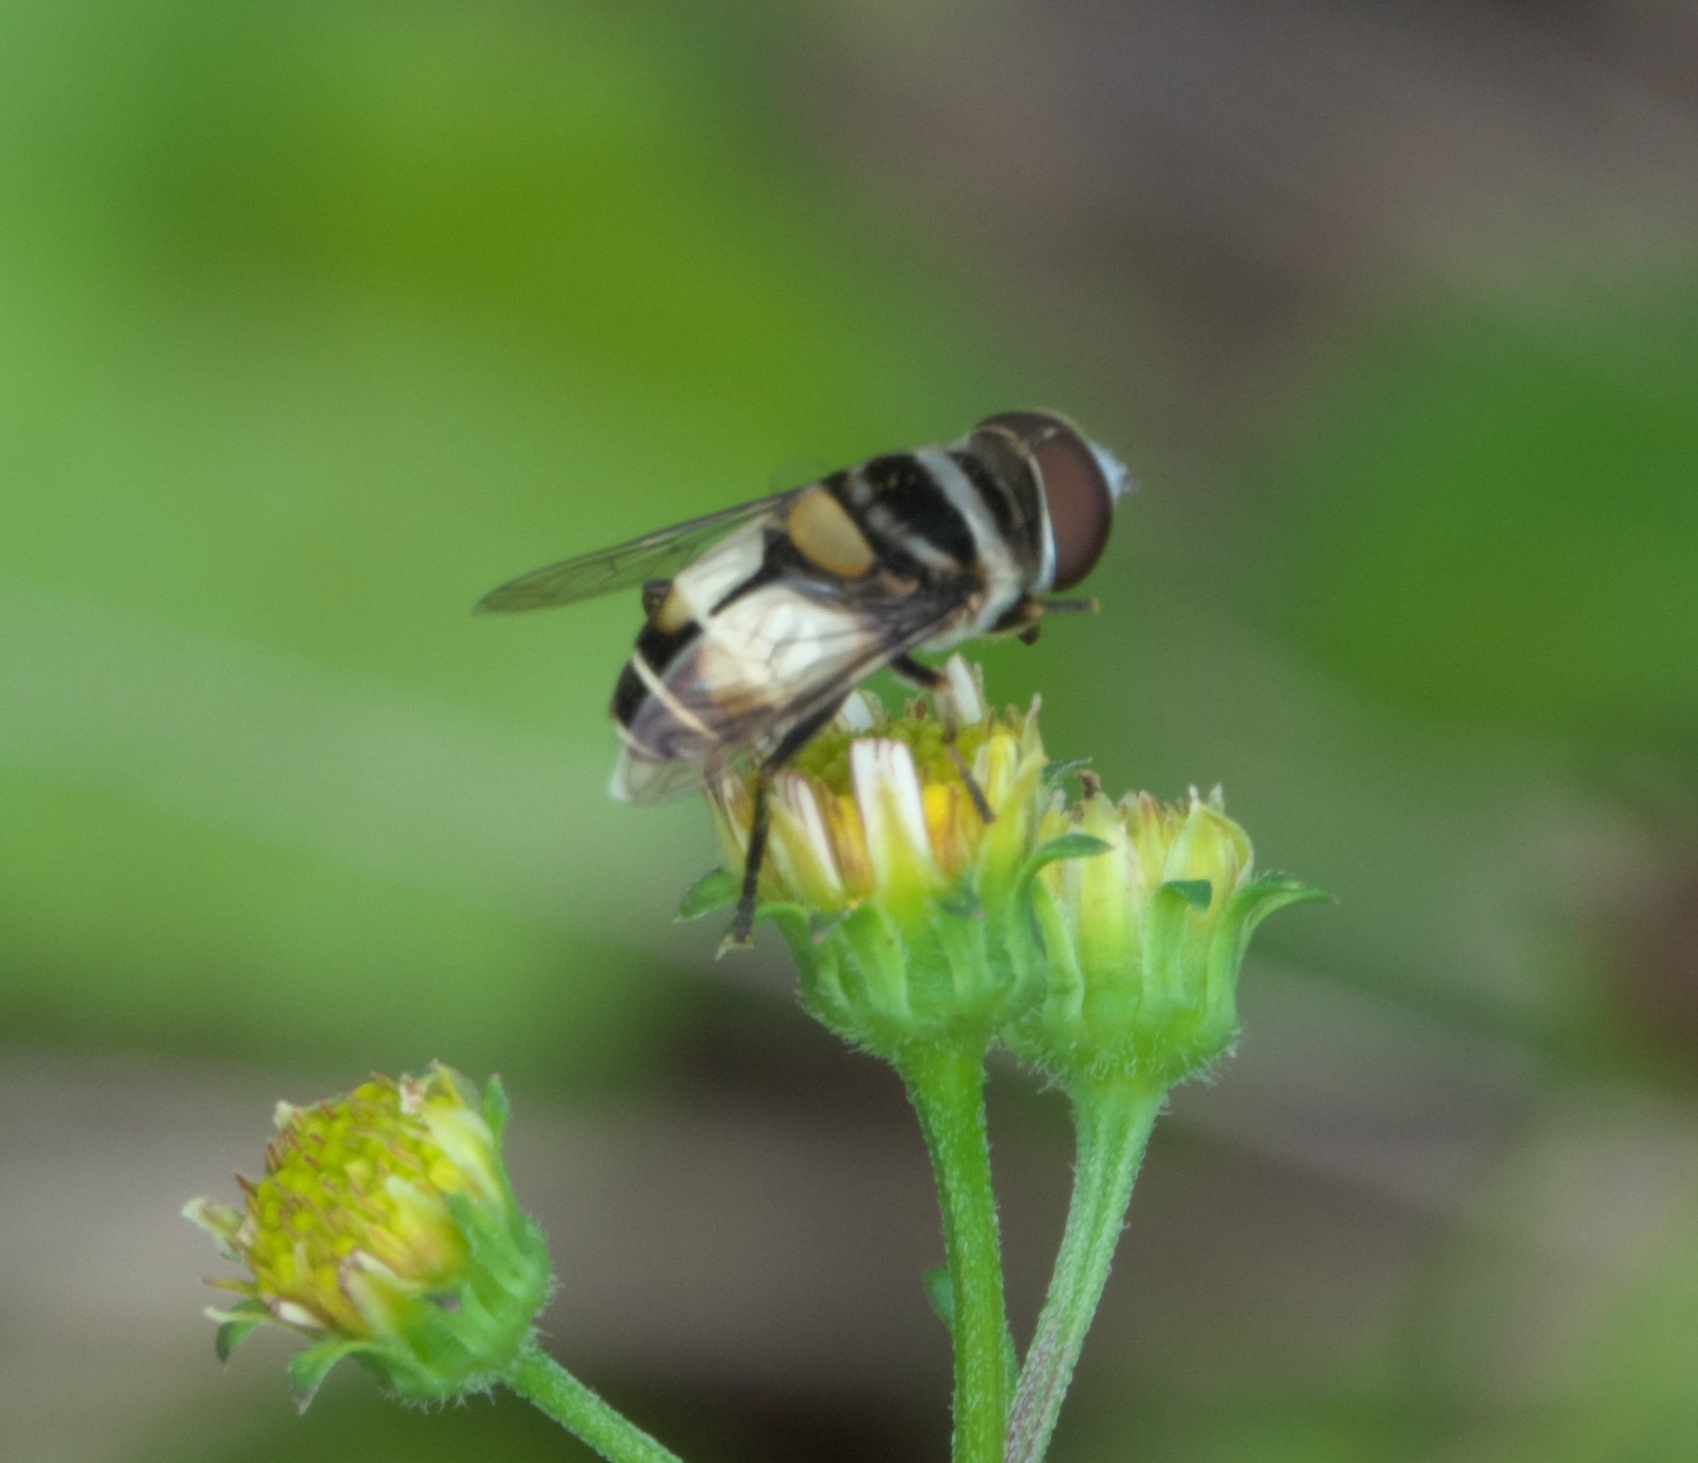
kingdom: Animalia
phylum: Arthropoda
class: Insecta
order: Diptera
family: Syrphidae
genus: Palpada
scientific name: Palpada albifrons
